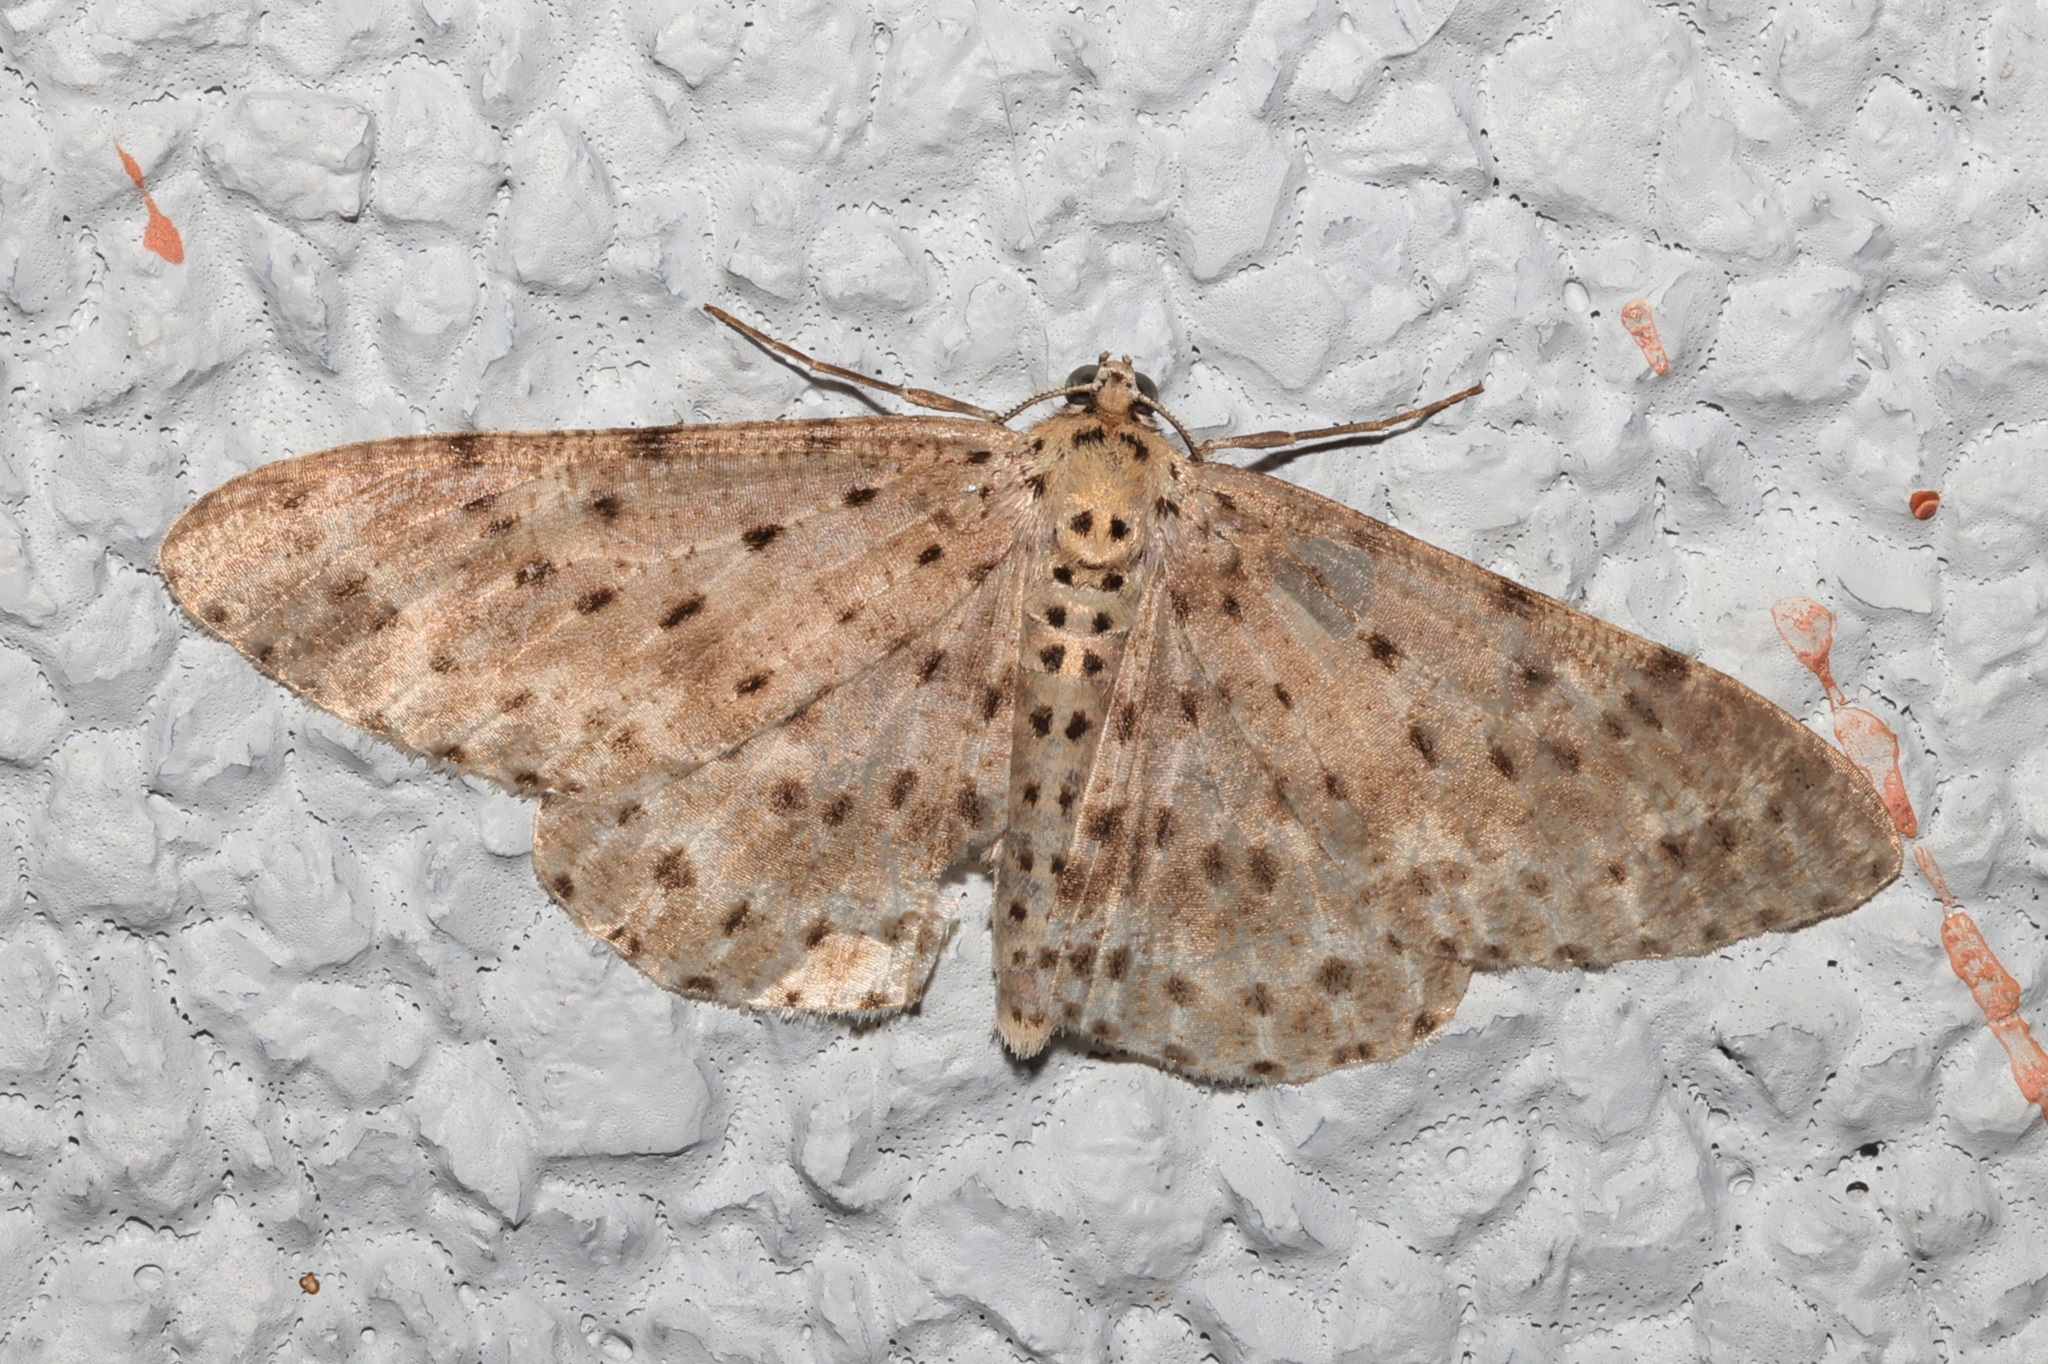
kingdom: Animalia
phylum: Arthropoda
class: Insecta
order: Lepidoptera
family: Geometridae
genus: Percnia
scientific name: Percnia fumidaria
